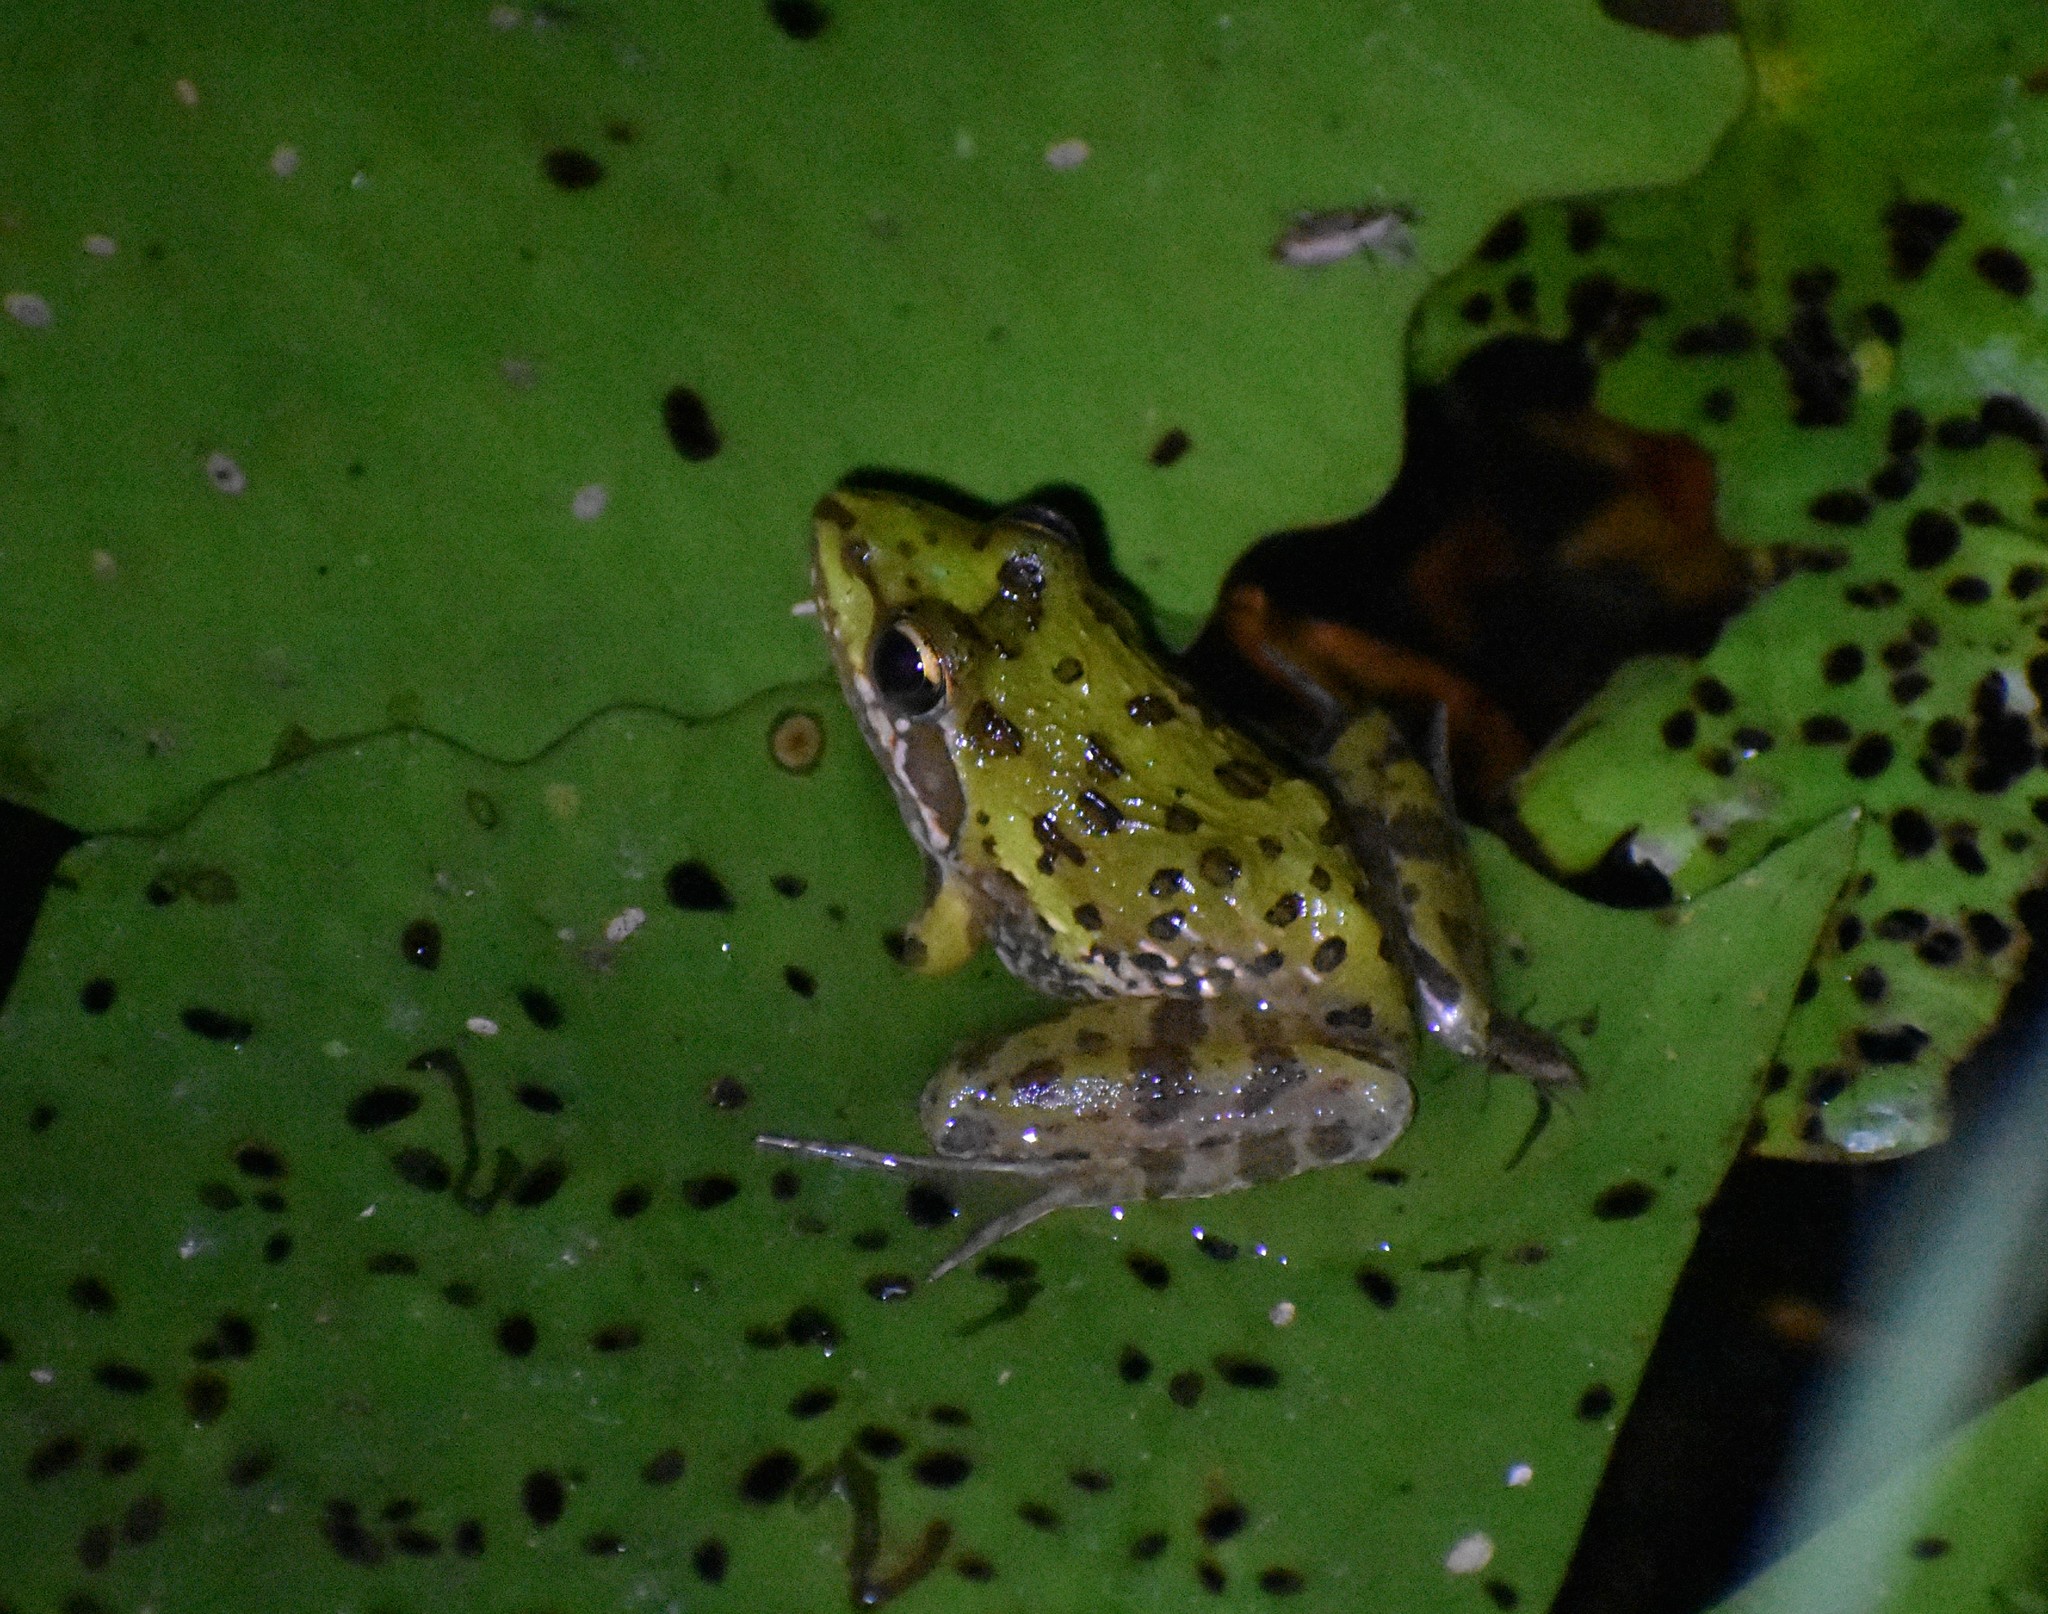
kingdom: Animalia
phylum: Chordata
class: Amphibia
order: Anura
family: Pyxicephalidae
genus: Amietia
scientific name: Amietia delalandii
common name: Delalande's river frog
